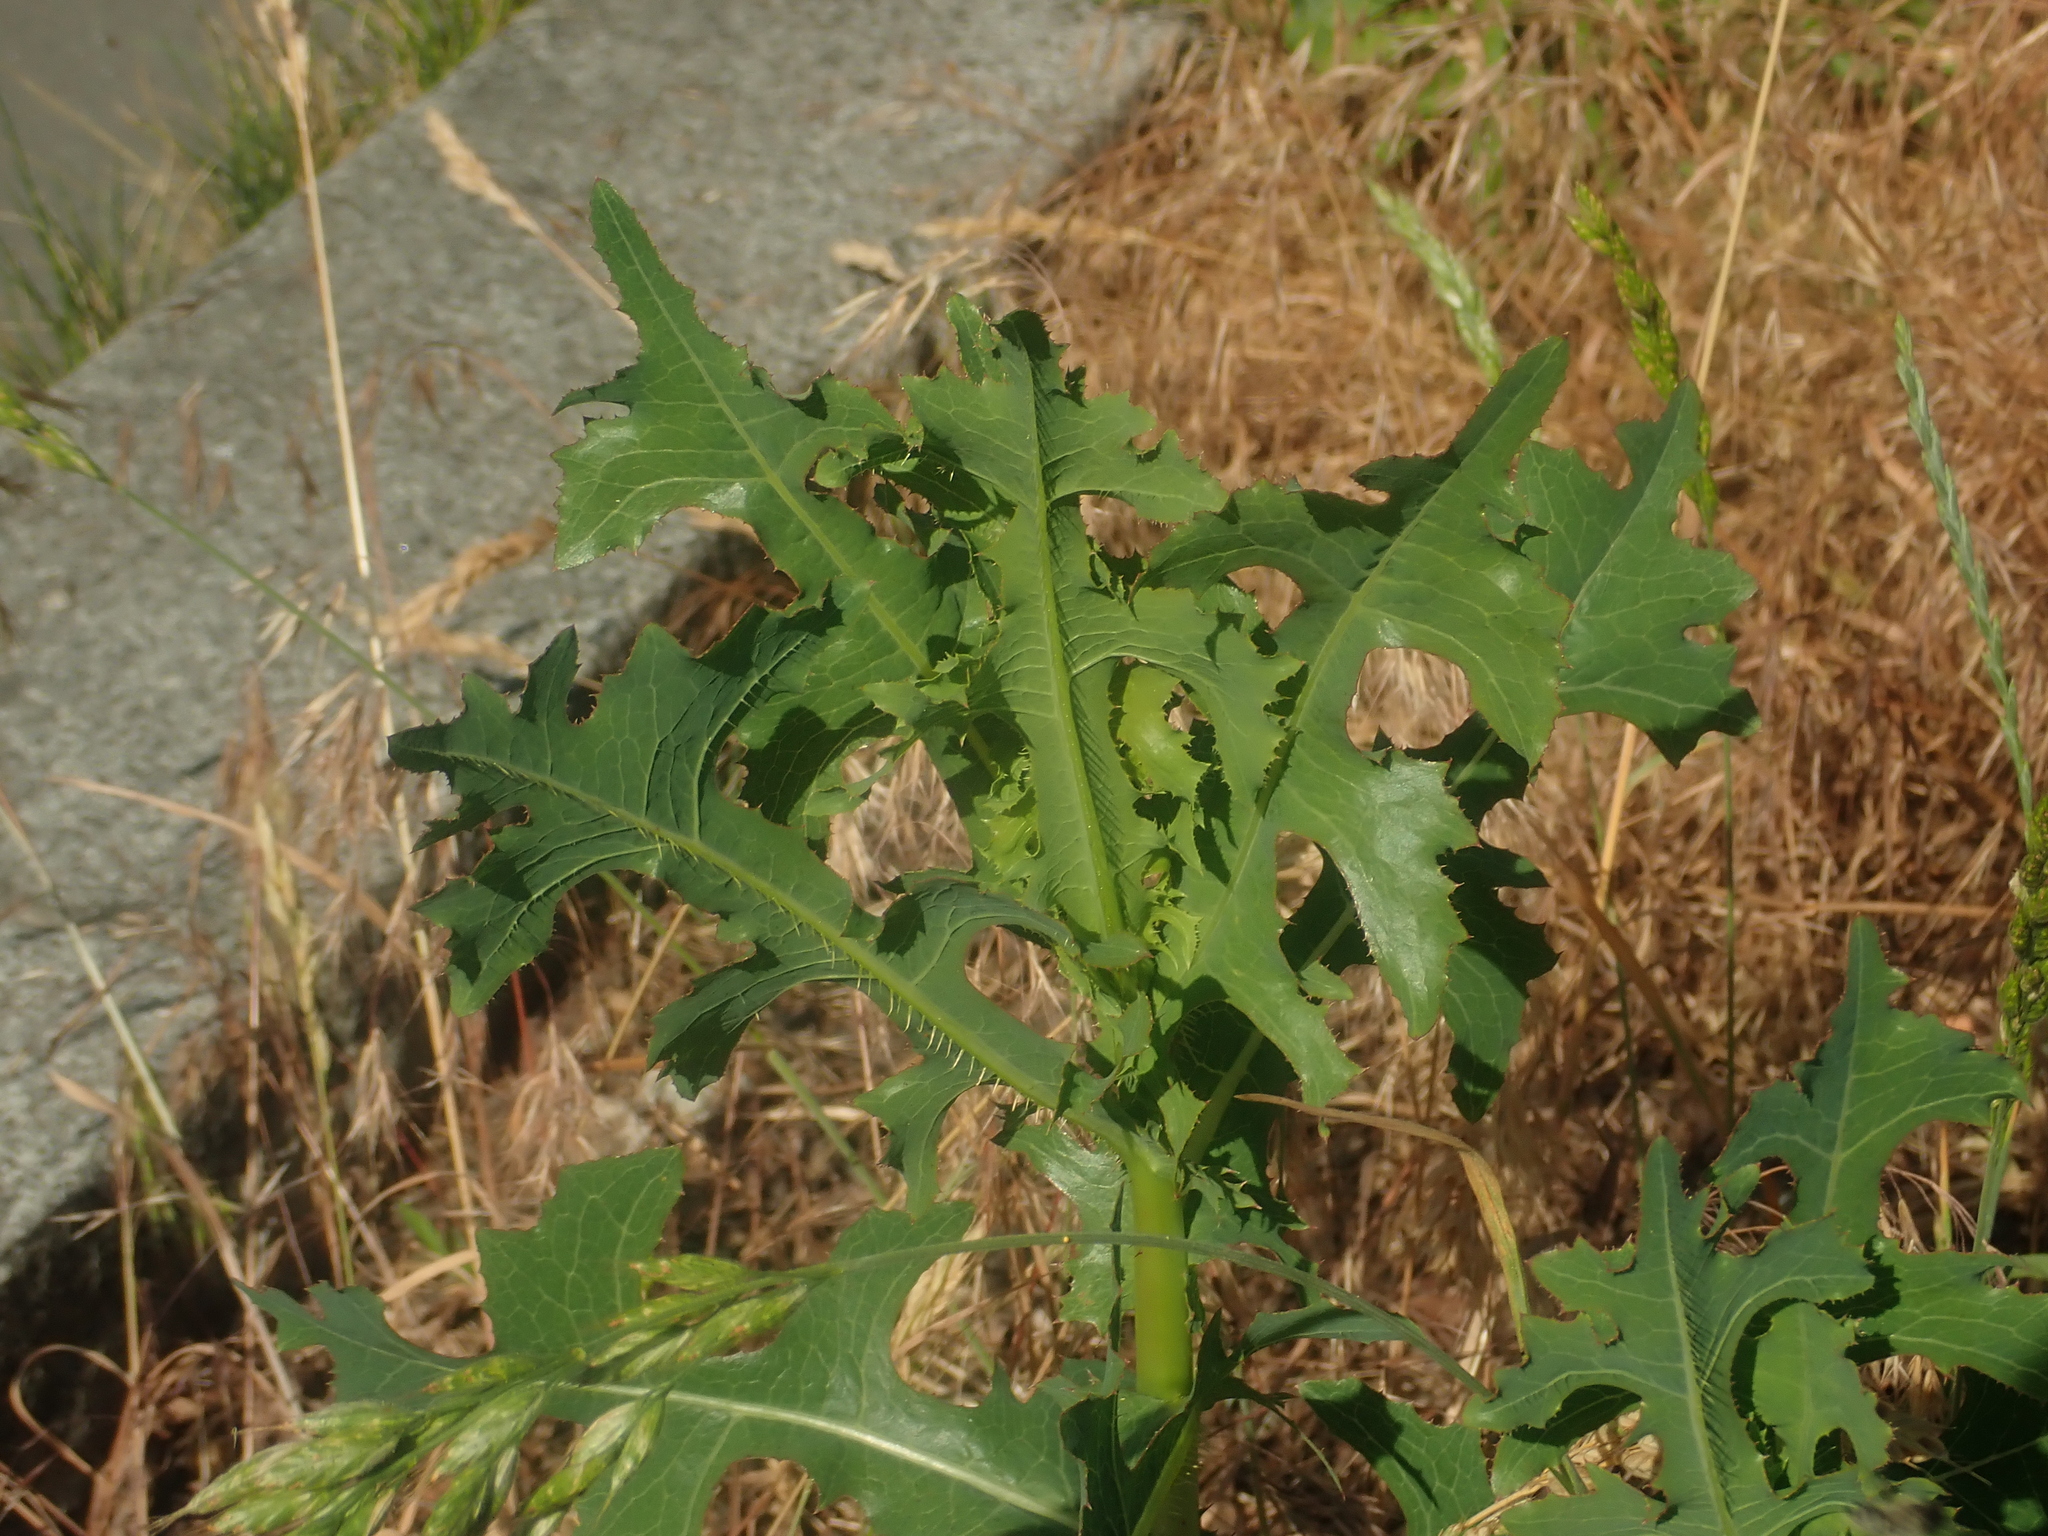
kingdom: Plantae
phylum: Tracheophyta
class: Magnoliopsida
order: Asterales
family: Asteraceae
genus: Lactuca
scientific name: Lactuca serriola
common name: Prickly lettuce
